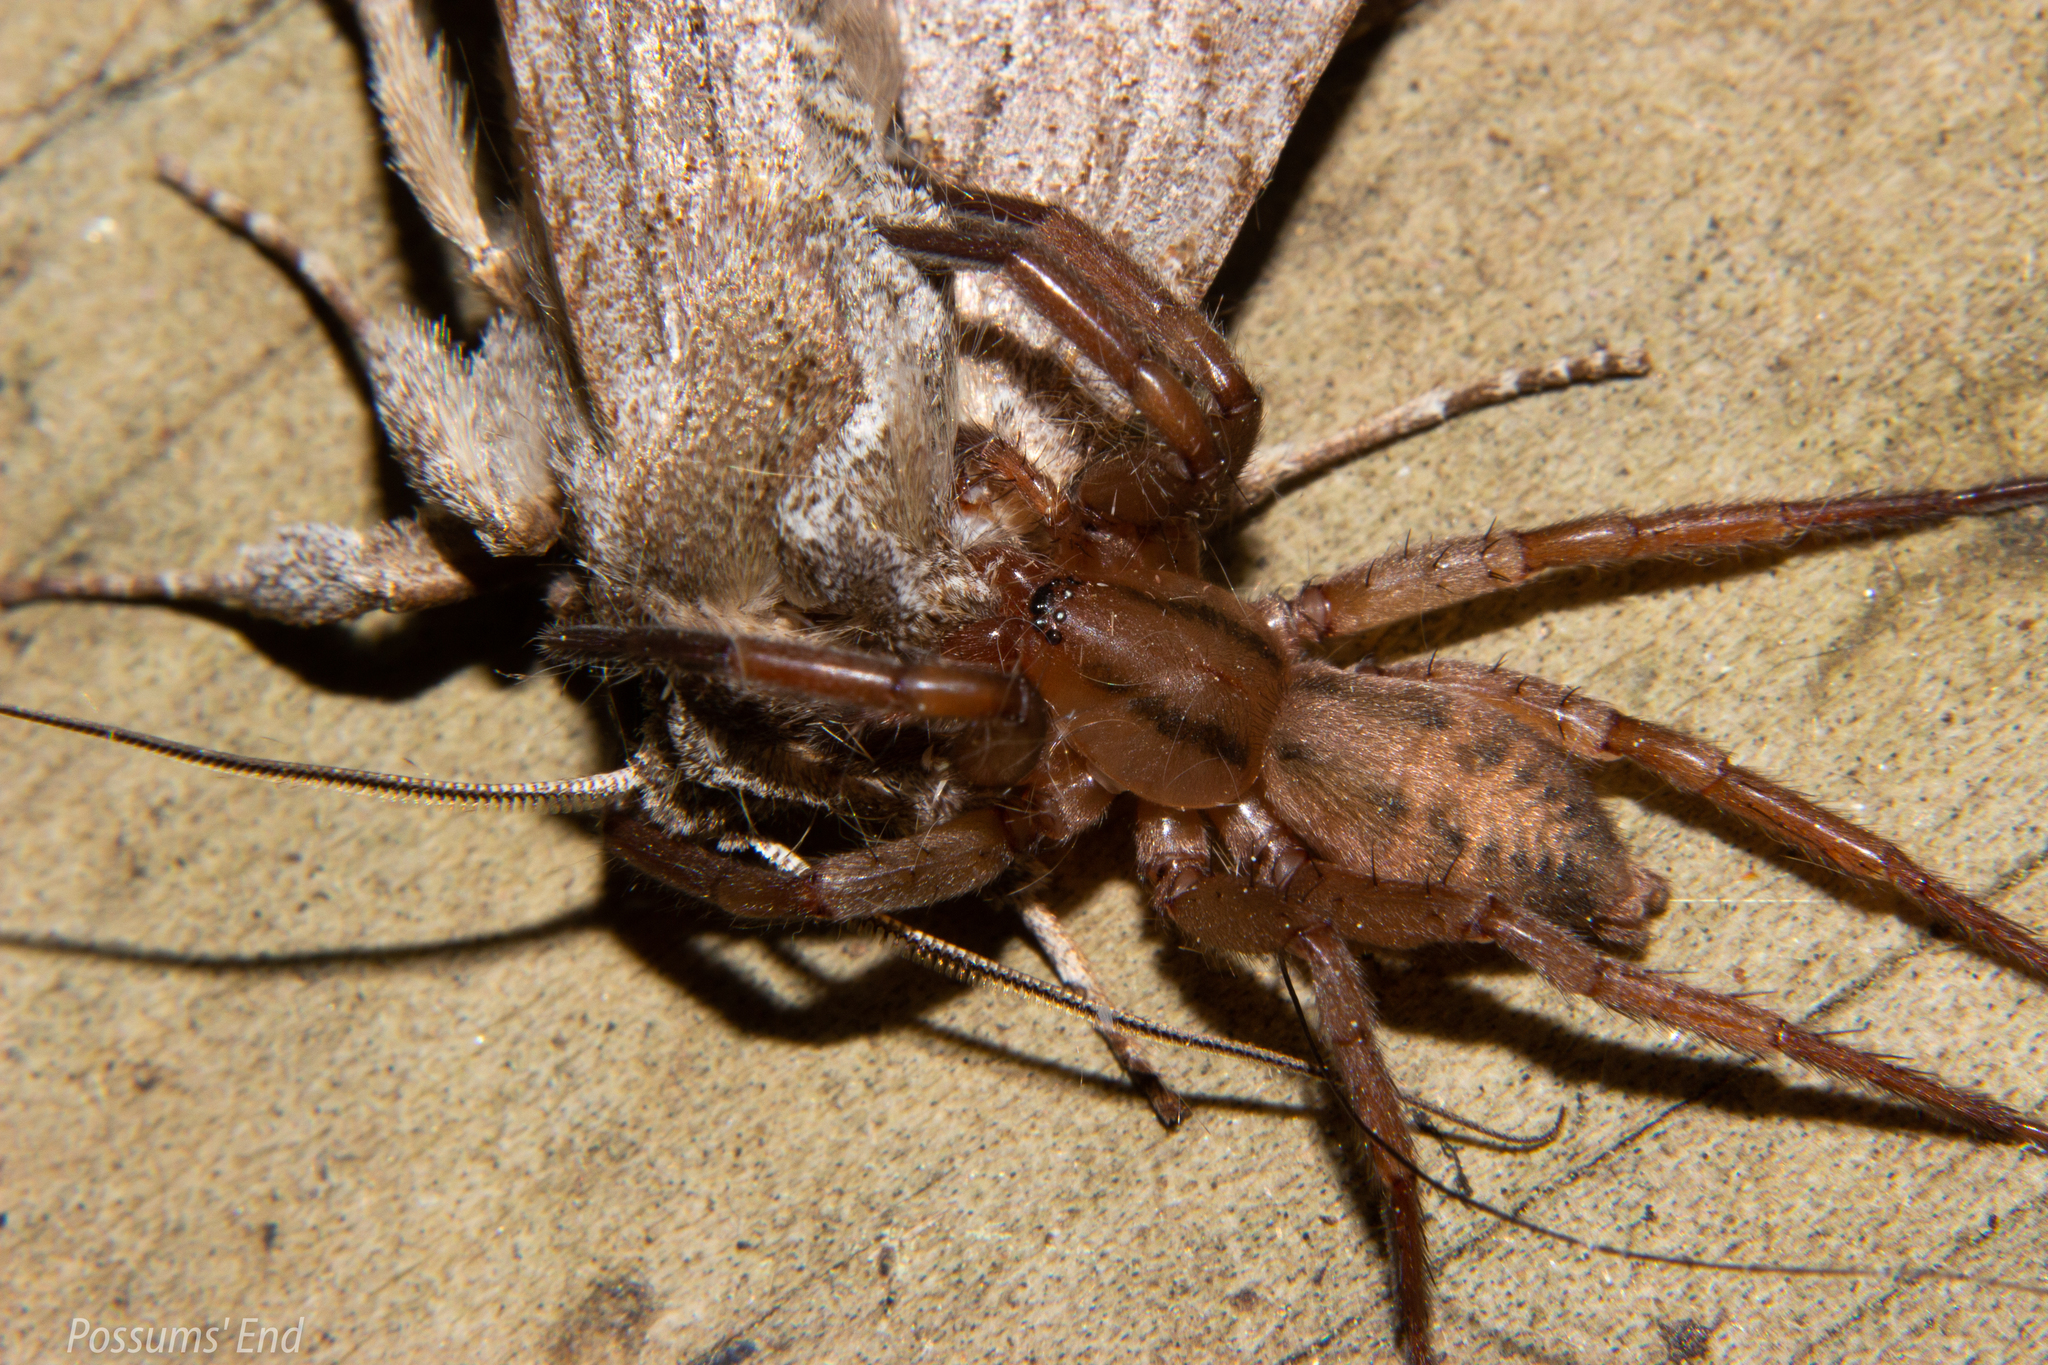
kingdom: Animalia
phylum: Arthropoda
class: Arachnida
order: Araneae
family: Gnaphosidae
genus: Notiodrassus
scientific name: Notiodrassus distinctus
